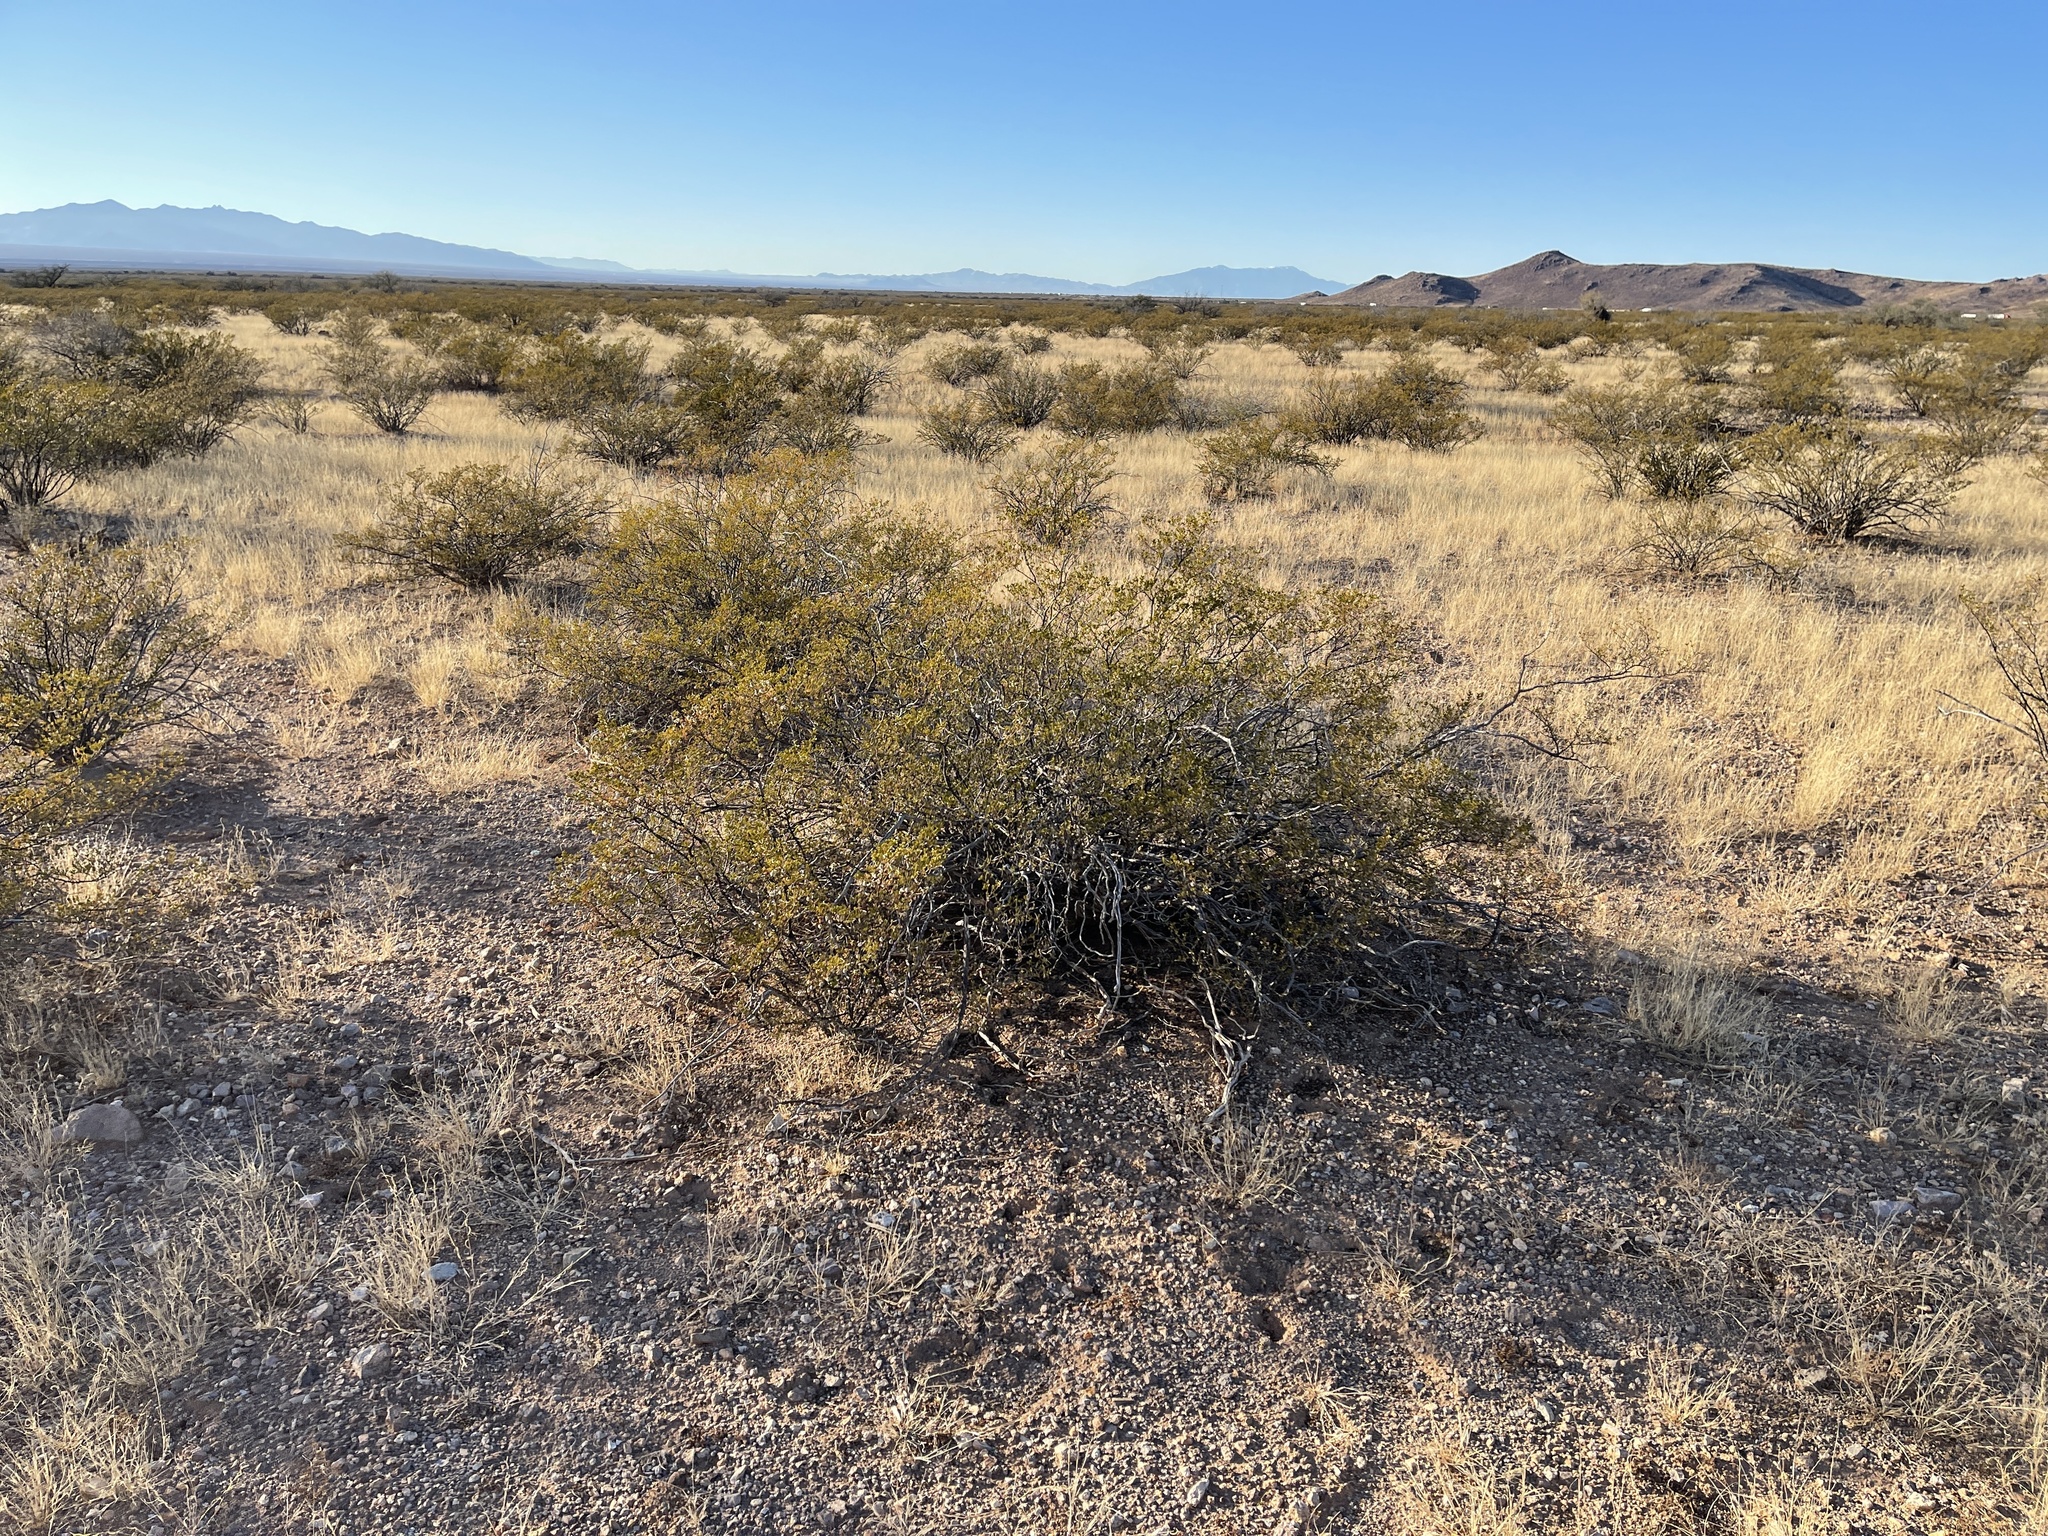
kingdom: Plantae
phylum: Tracheophyta
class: Magnoliopsida
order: Zygophyllales
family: Zygophyllaceae
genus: Larrea
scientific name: Larrea tridentata
